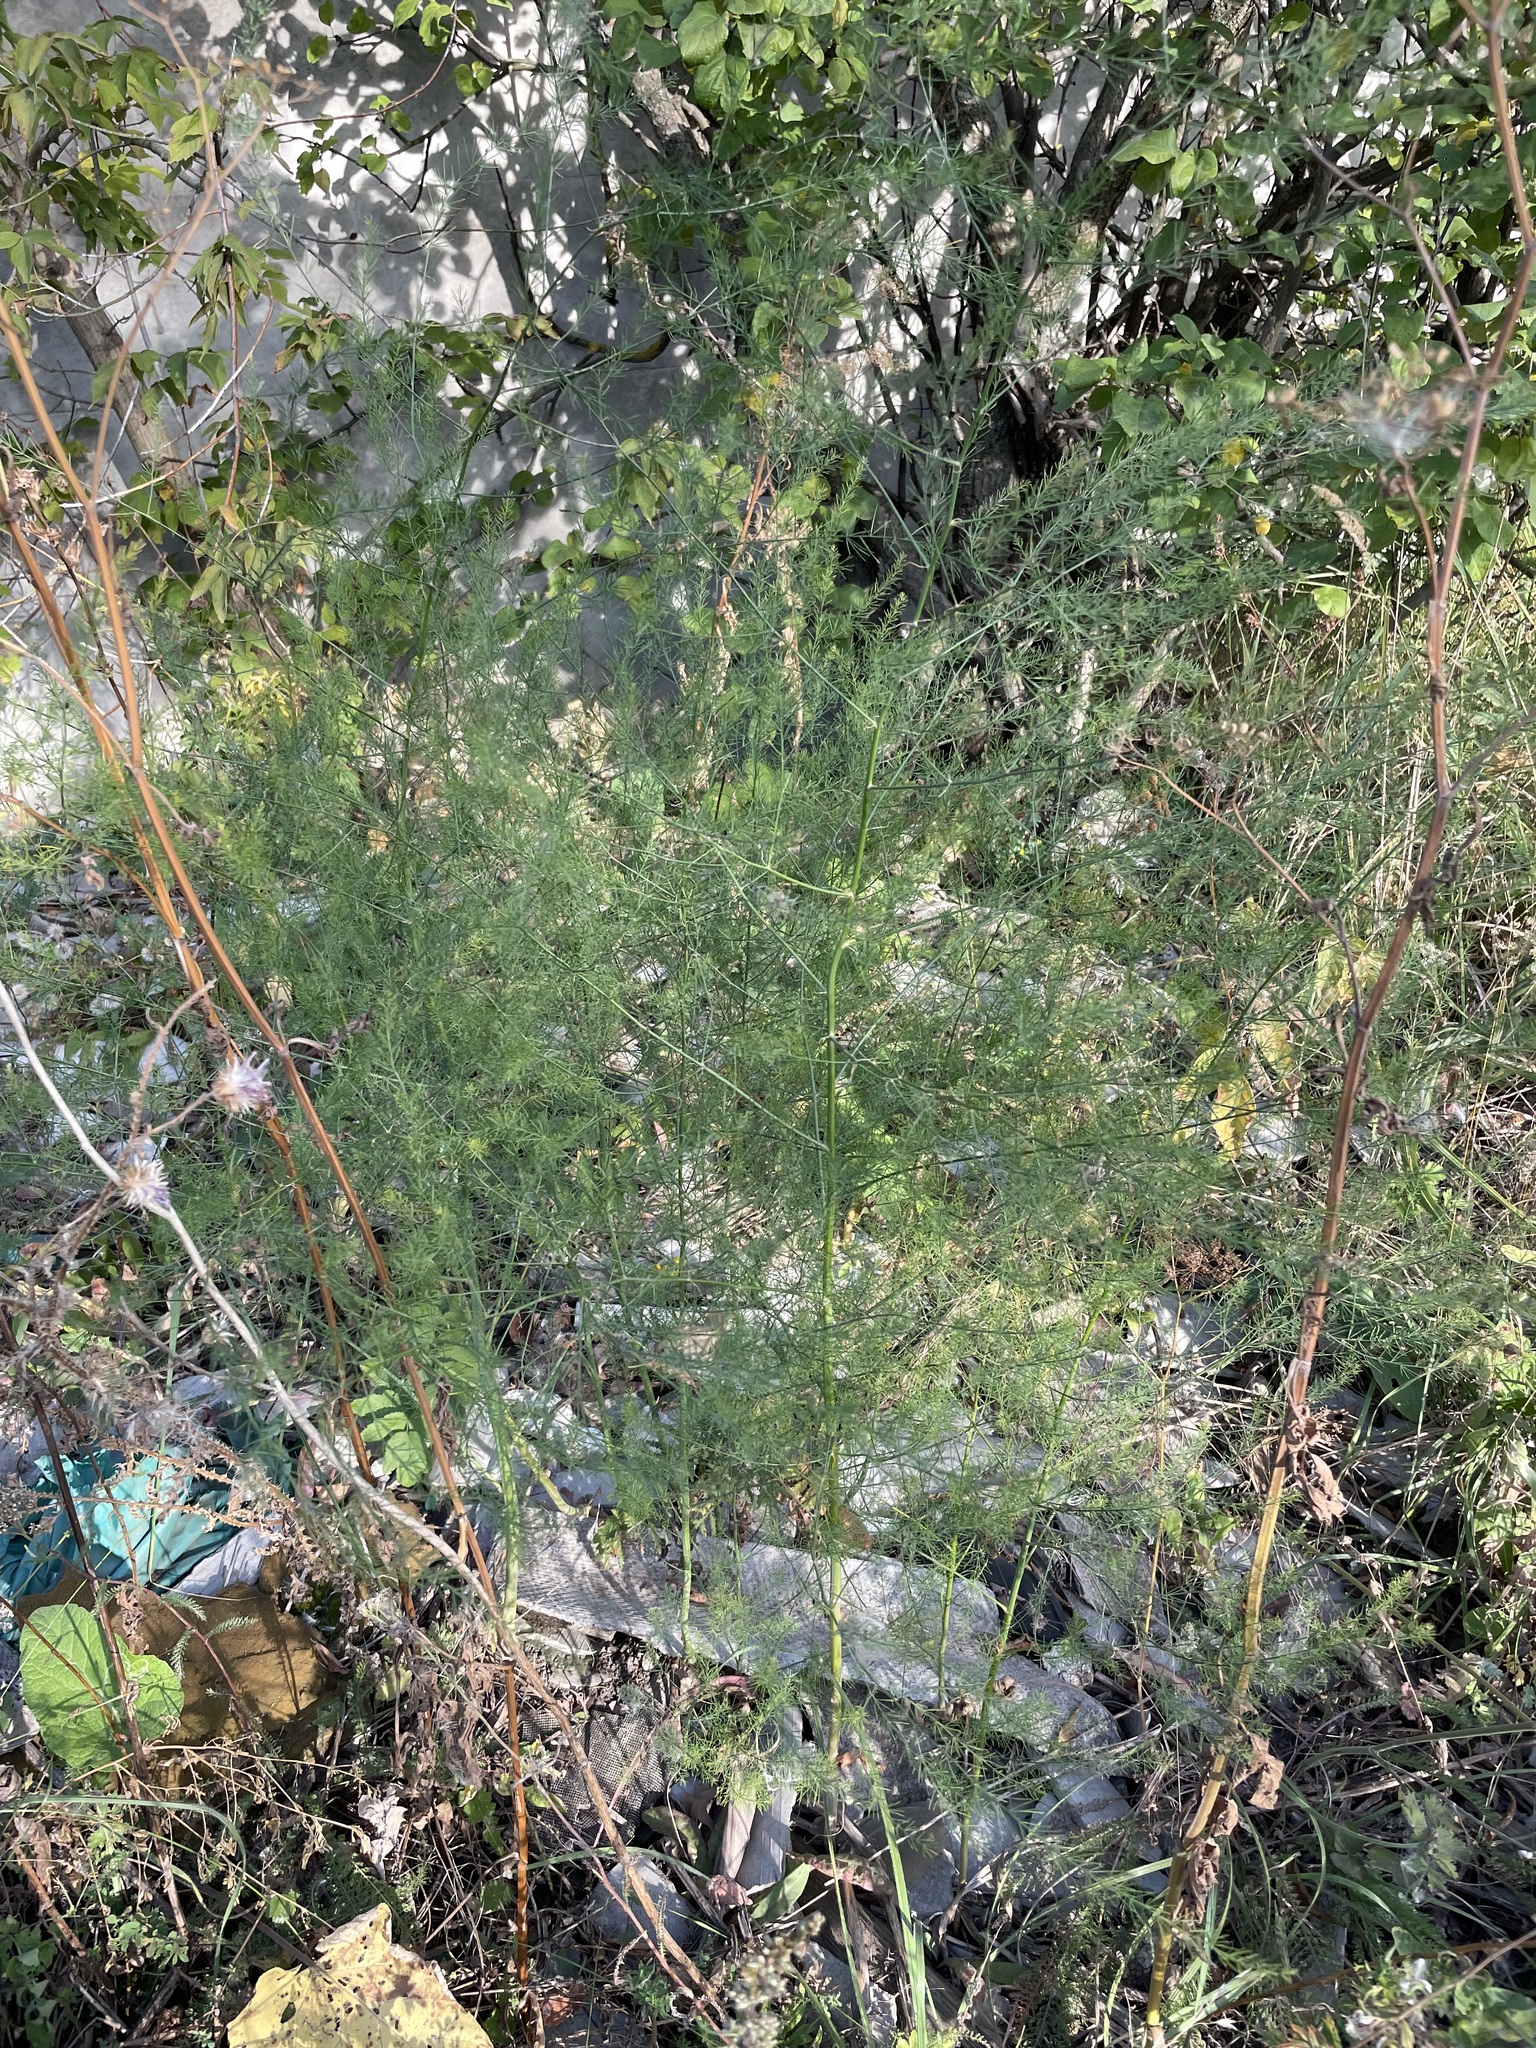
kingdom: Plantae
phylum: Tracheophyta
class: Liliopsida
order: Asparagales
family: Asparagaceae
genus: Asparagus
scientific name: Asparagus officinalis
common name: Garden asparagus
